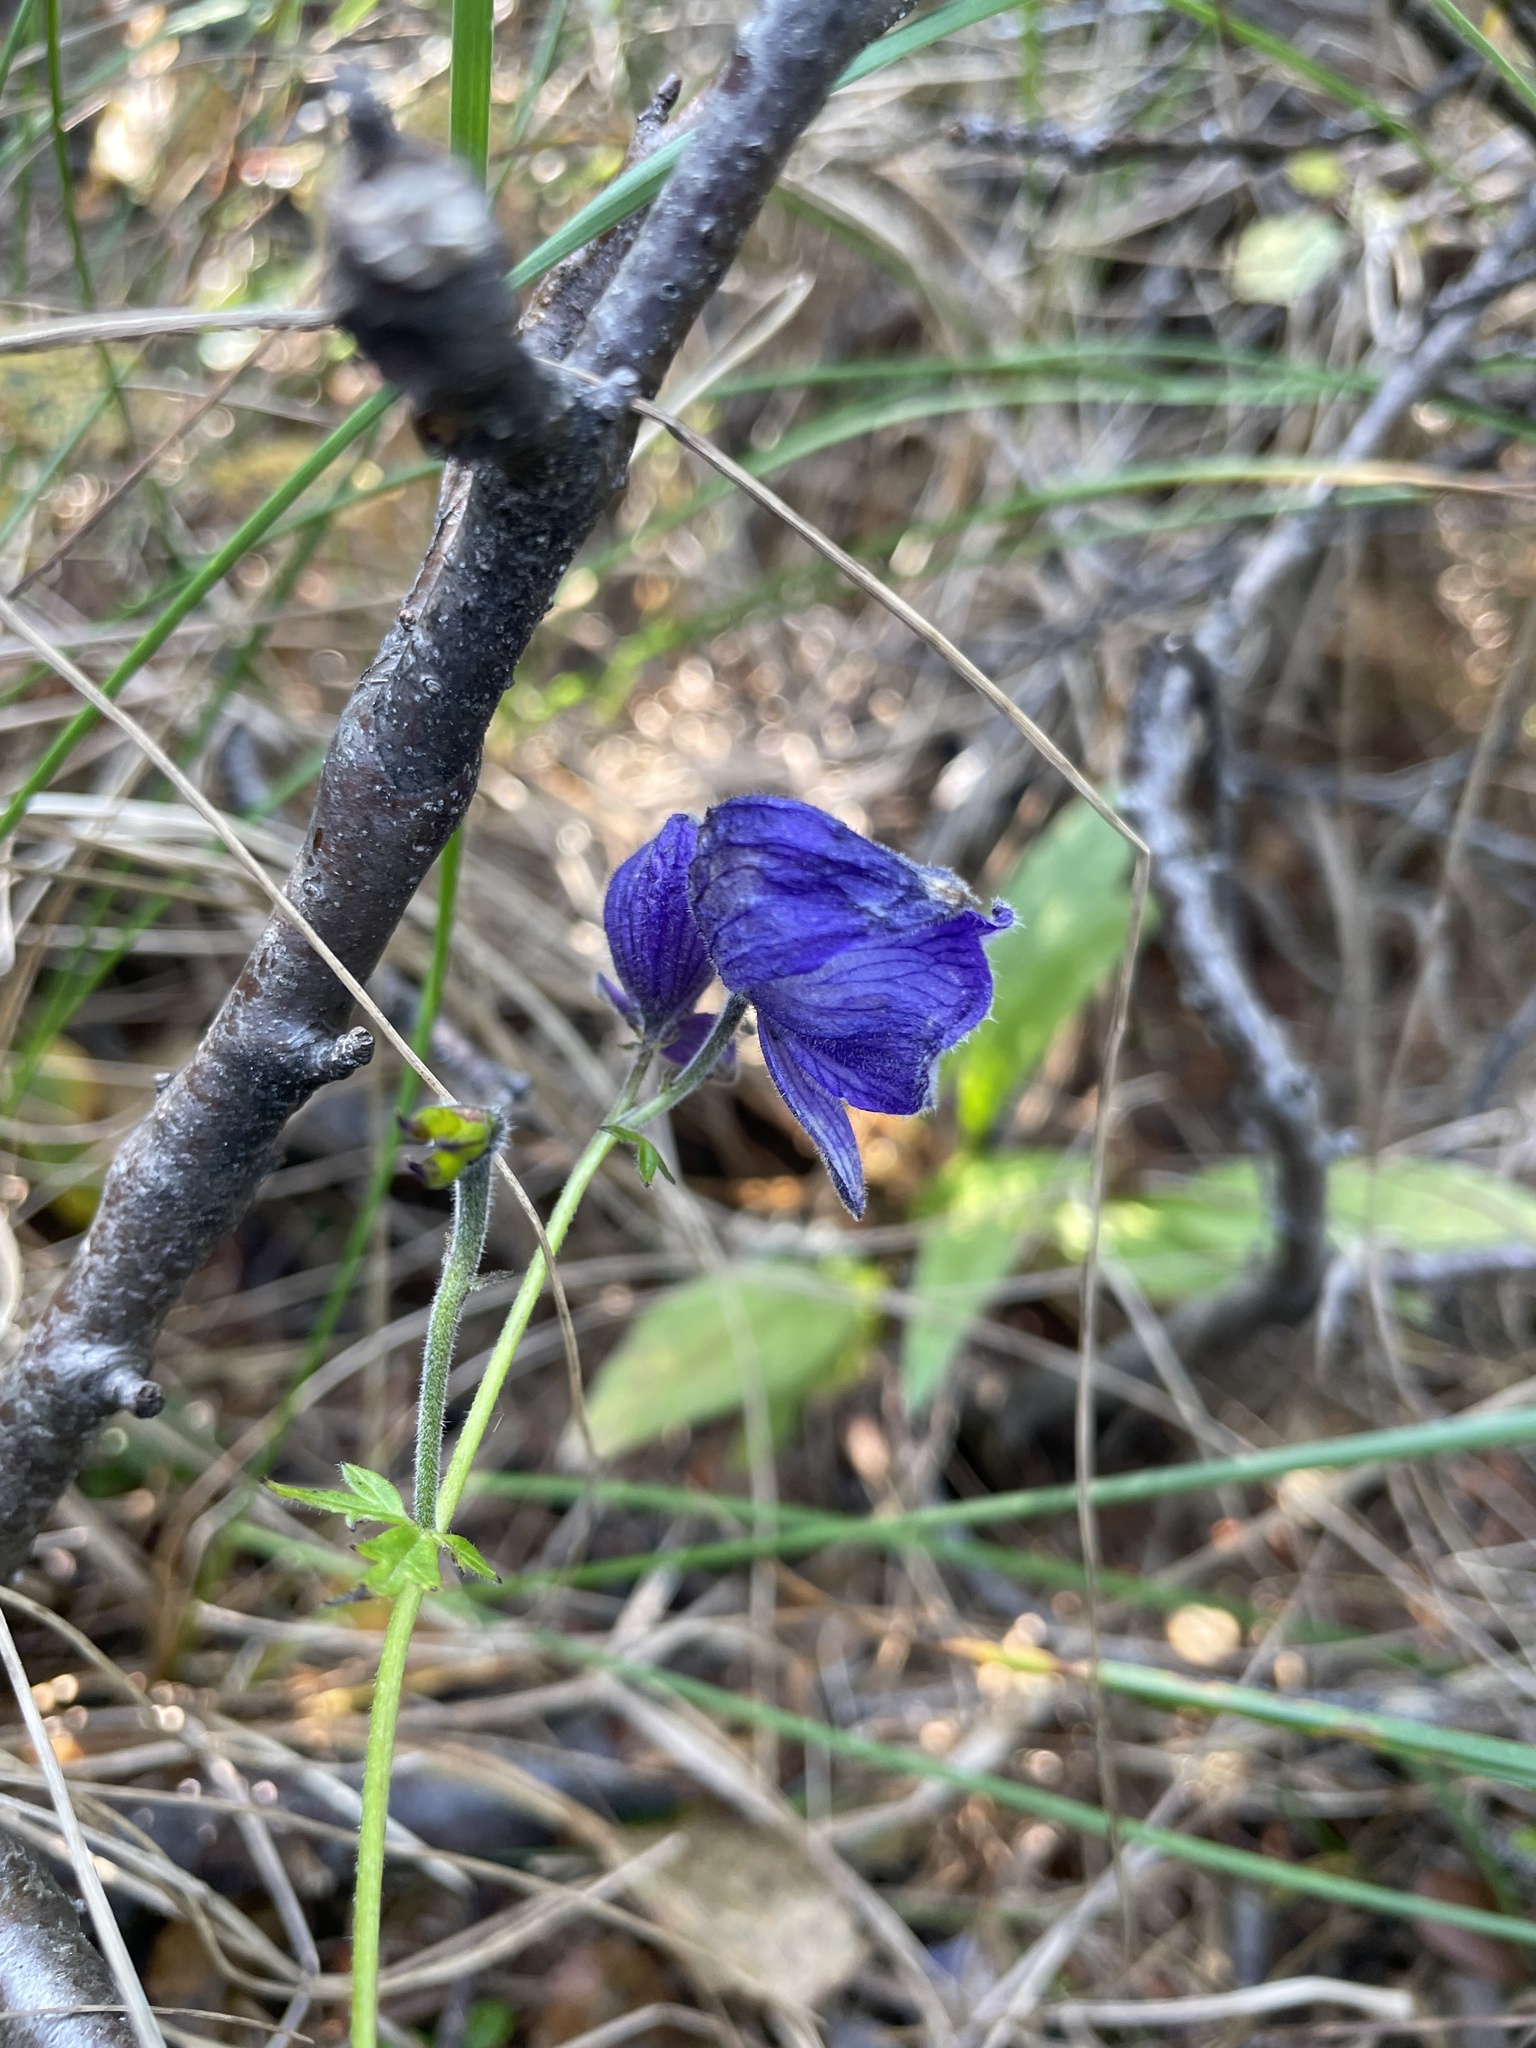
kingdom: Plantae
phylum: Tracheophyta
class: Magnoliopsida
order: Ranunculales
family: Ranunculaceae
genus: Aconitum
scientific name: Aconitum delphiniifolium
